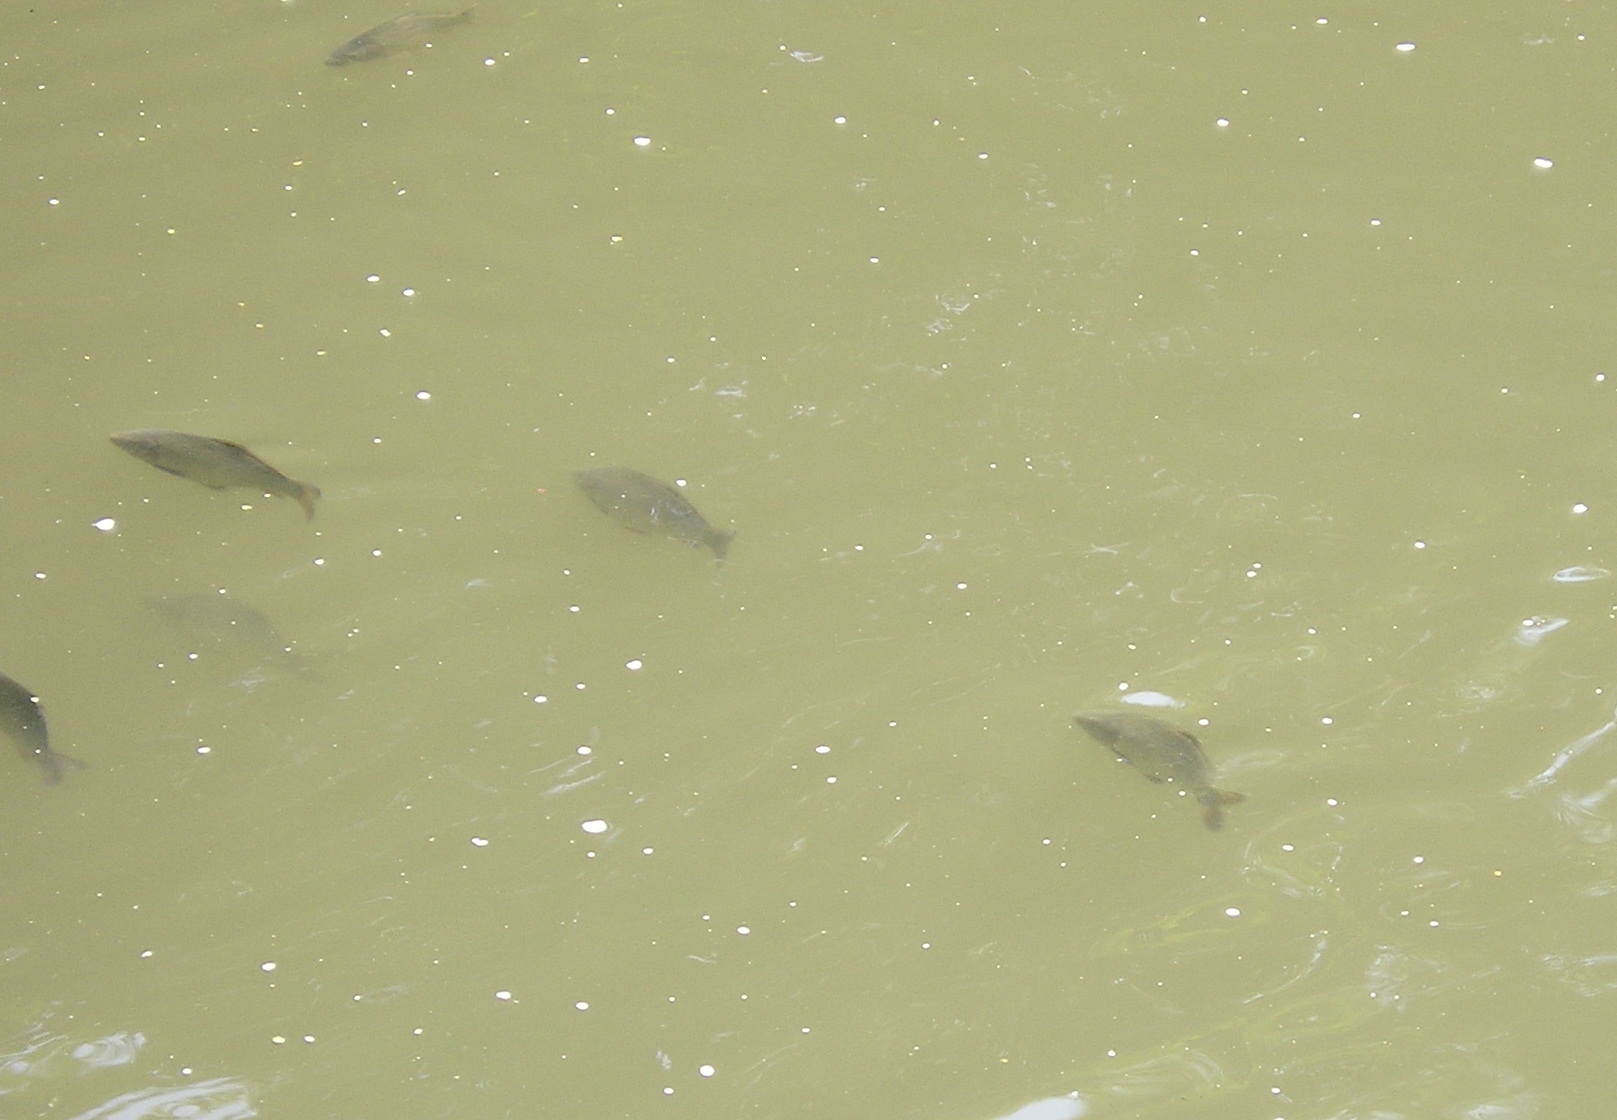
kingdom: Animalia
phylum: Chordata
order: Cypriniformes
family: Cyprinidae
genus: Cyprinus
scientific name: Cyprinus carpio
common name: Common carp
